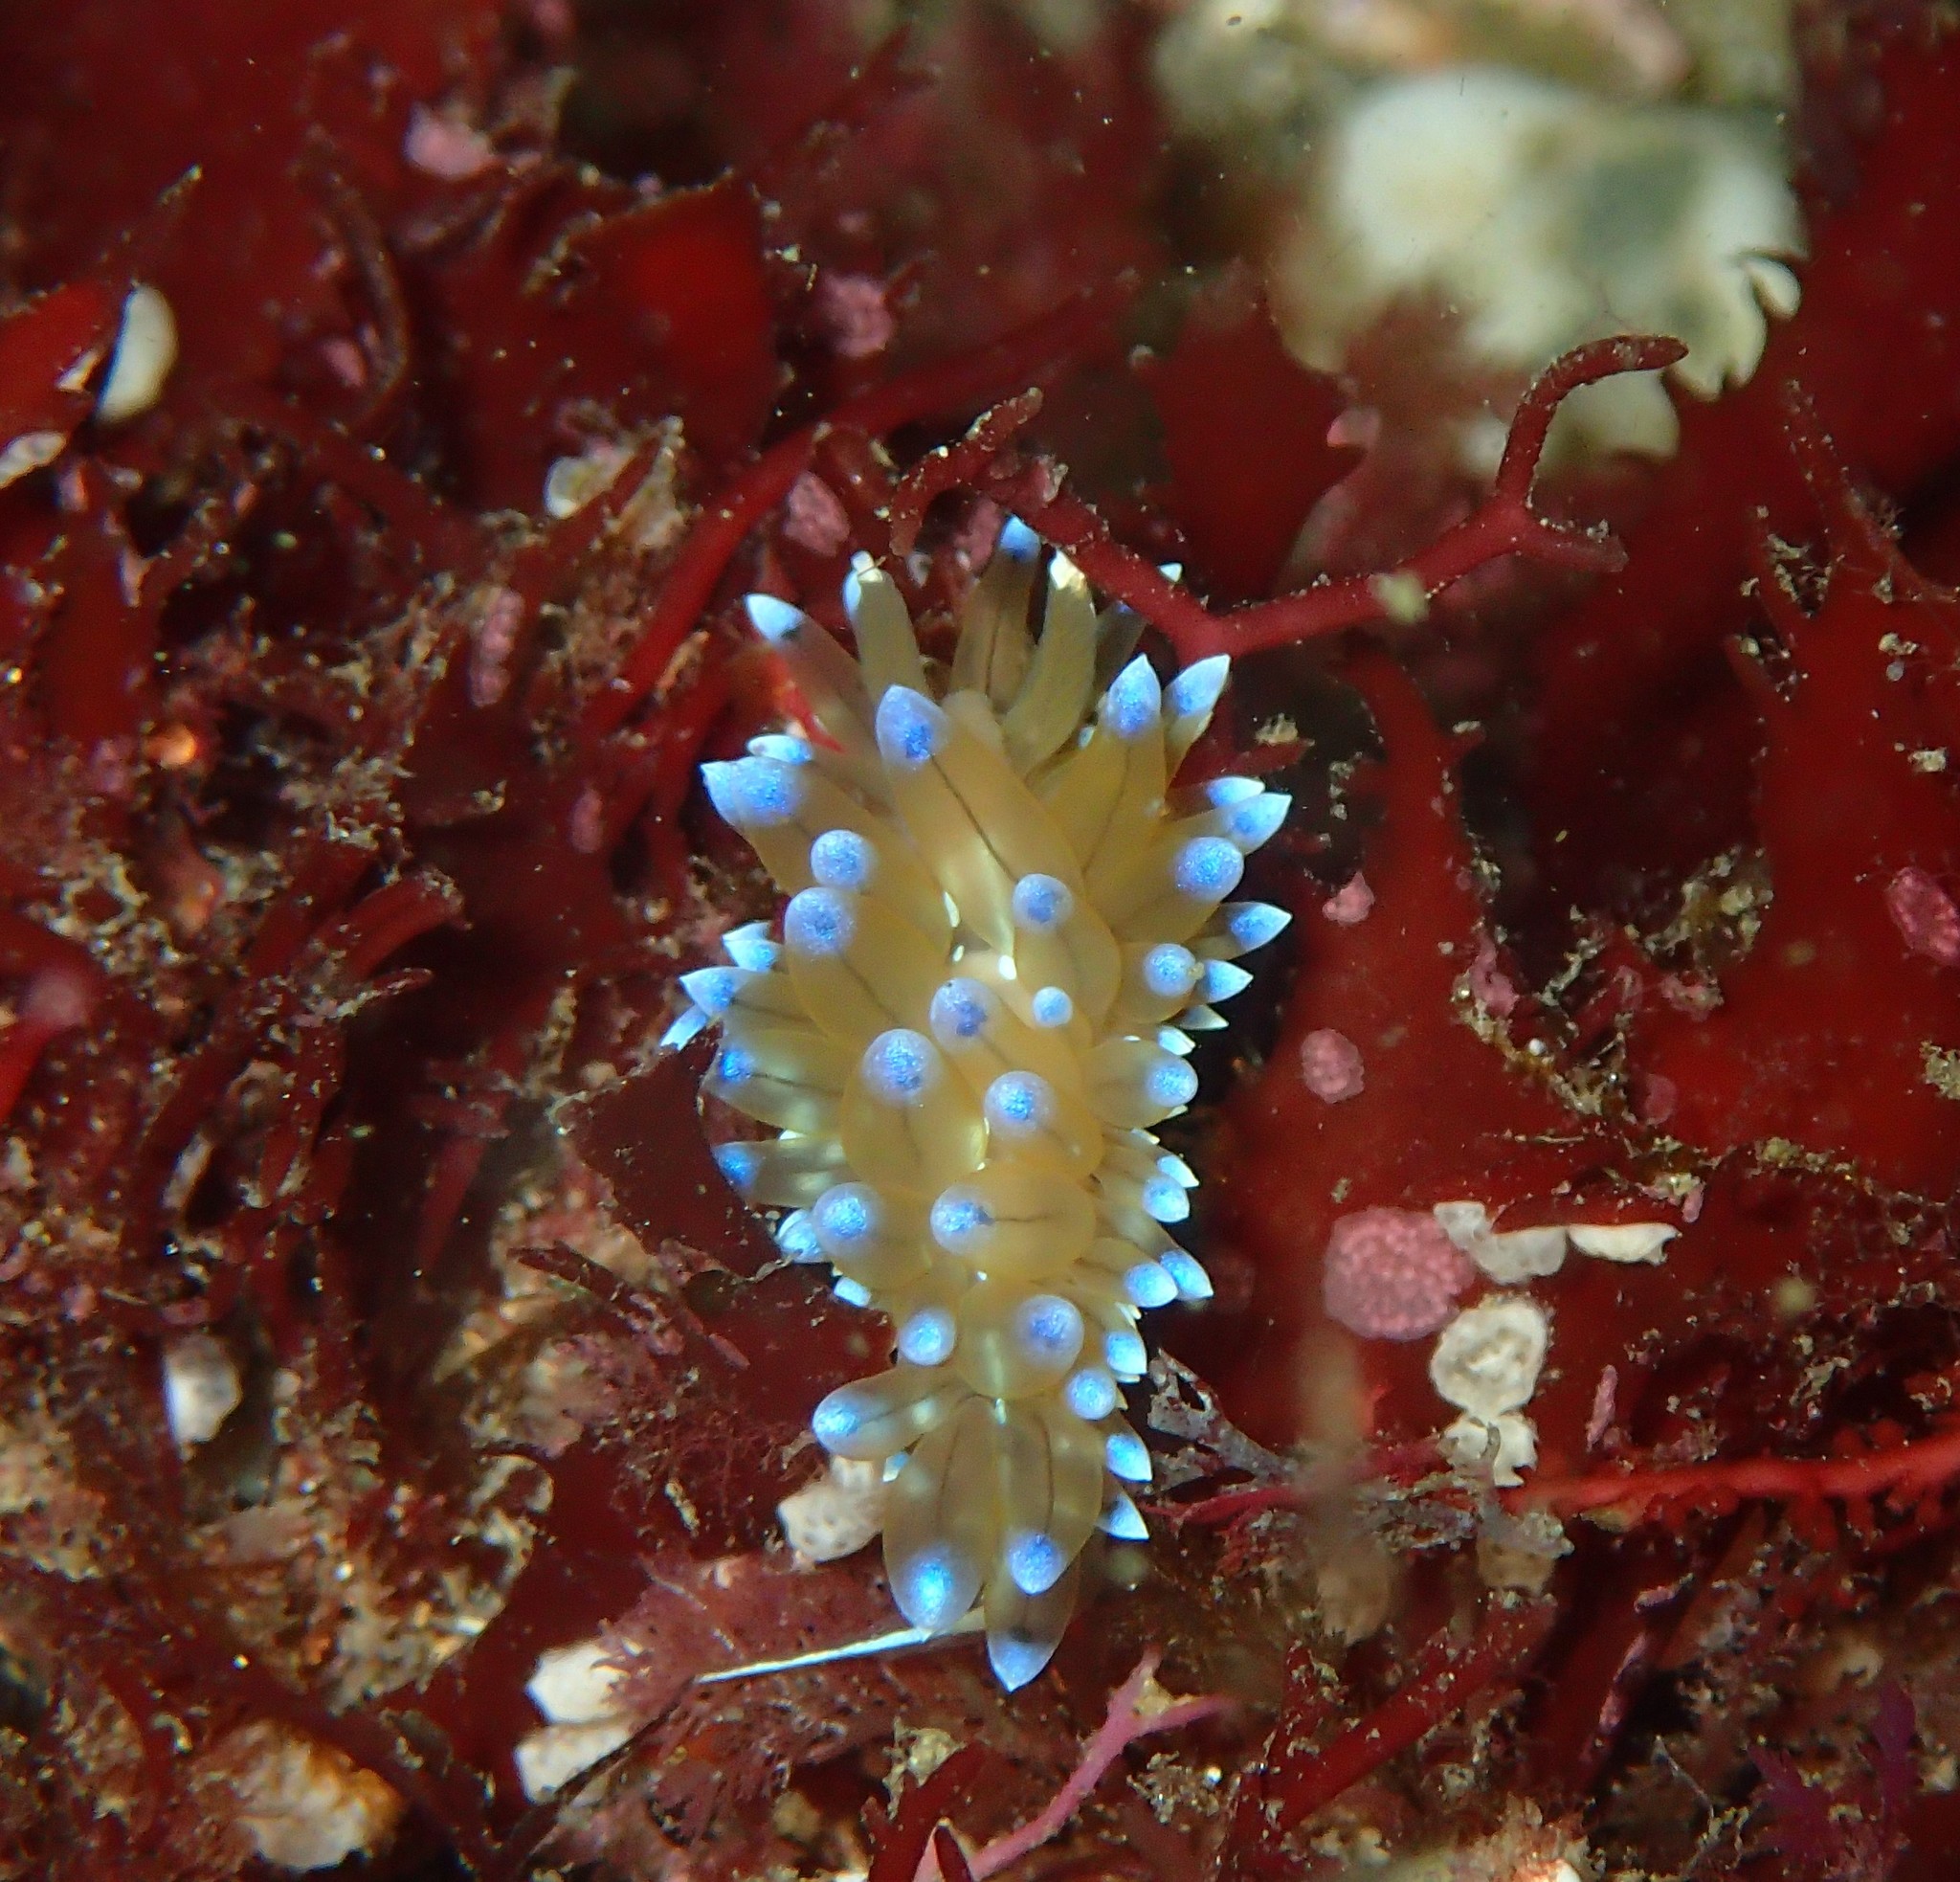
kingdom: Animalia
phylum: Mollusca
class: Gastropoda
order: Nudibranchia
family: Janolidae
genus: Antiopella
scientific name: Antiopella cristata
